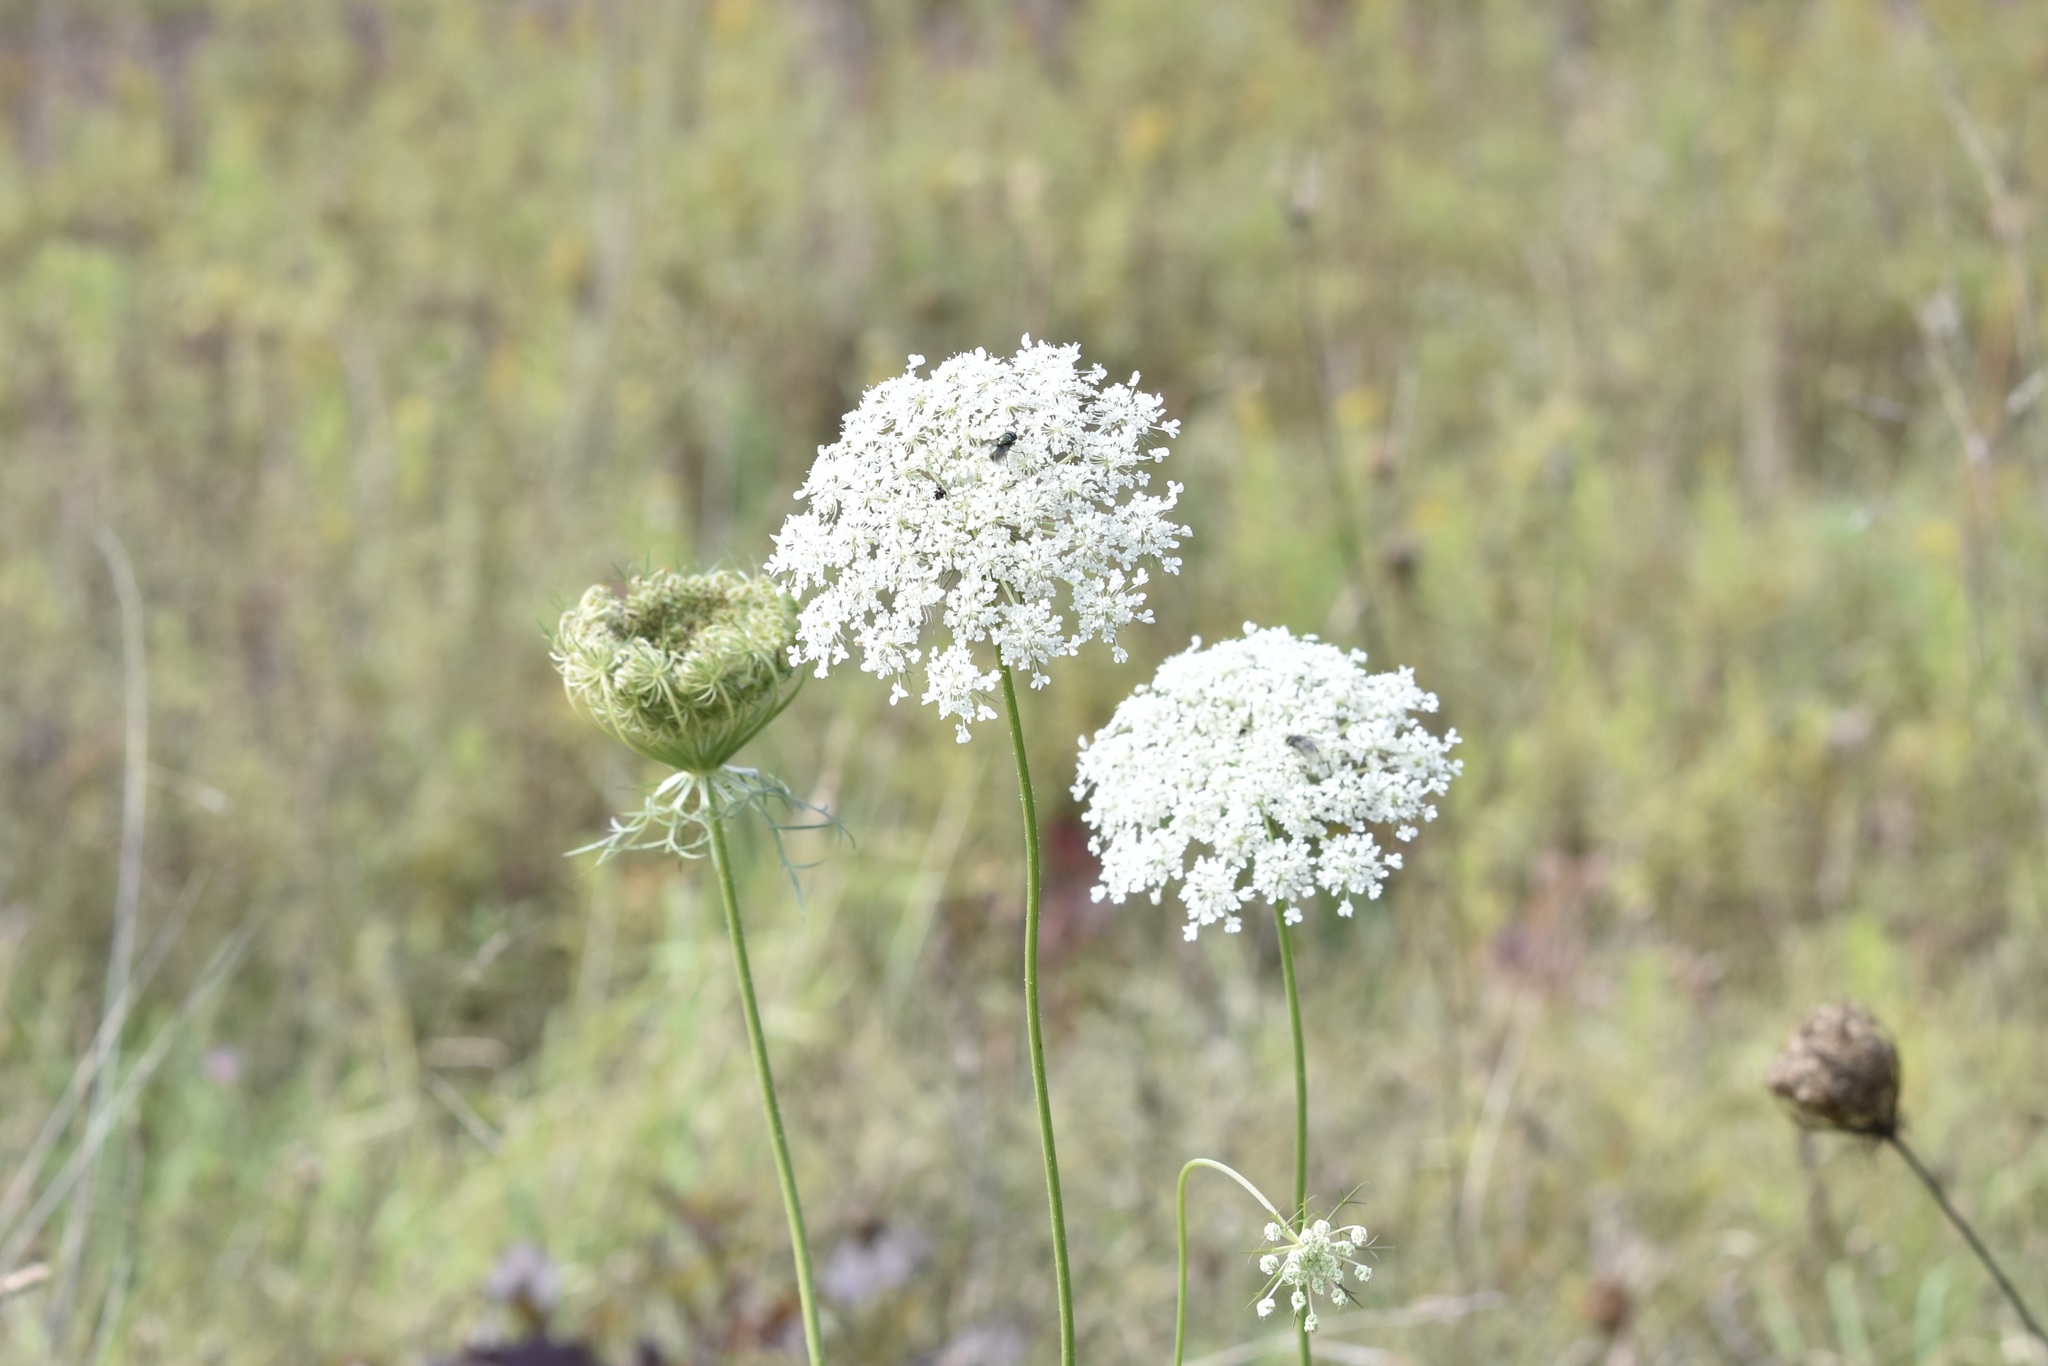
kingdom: Plantae
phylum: Tracheophyta
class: Magnoliopsida
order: Apiales
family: Apiaceae
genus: Daucus
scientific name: Daucus carota
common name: Wild carrot
